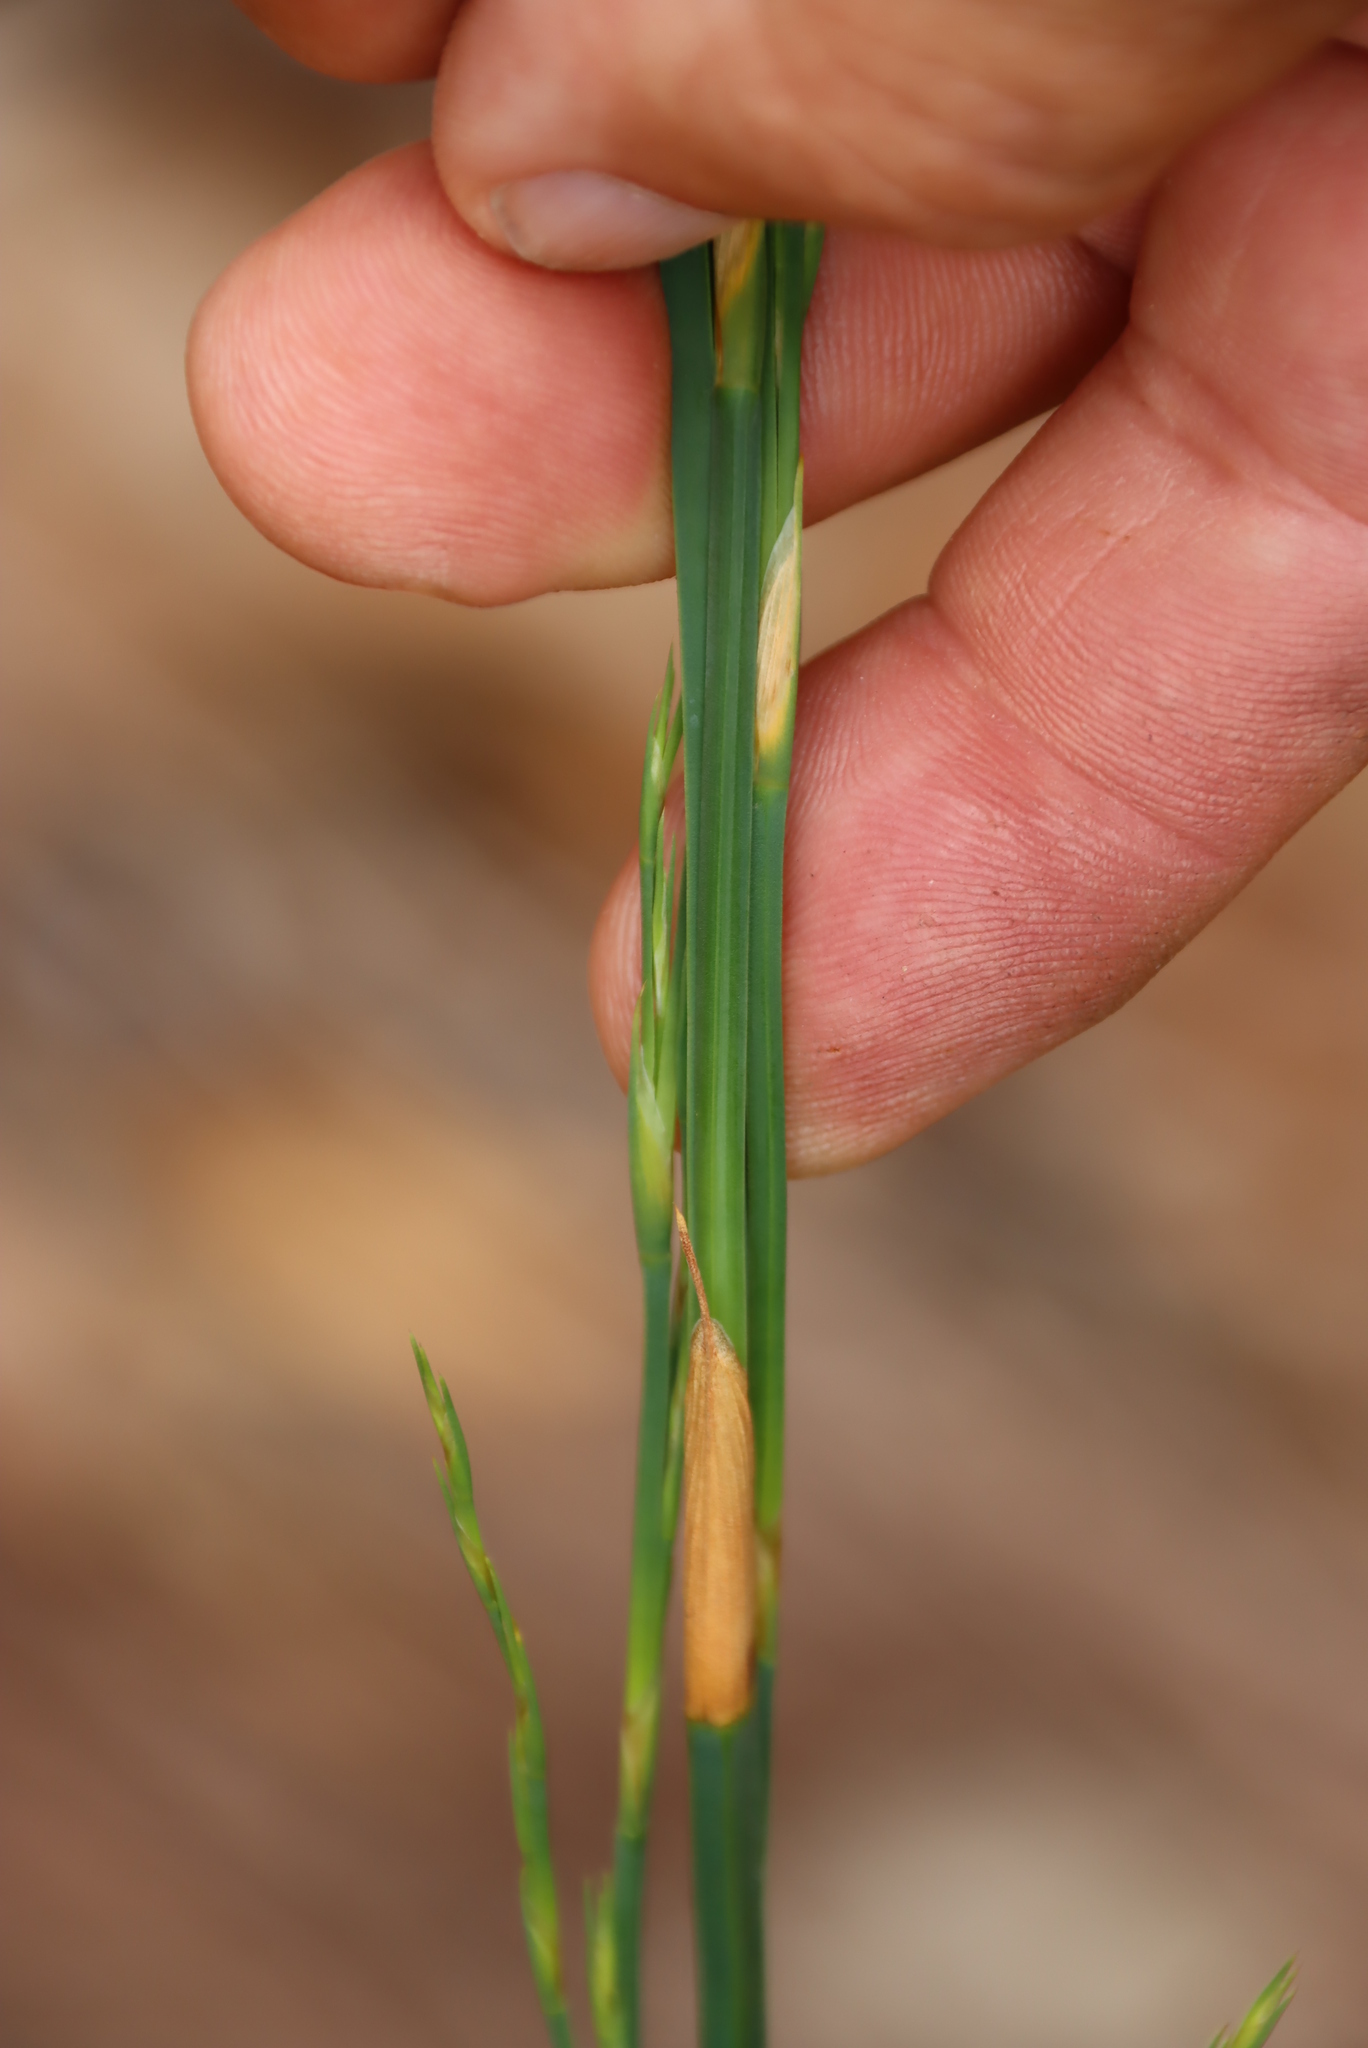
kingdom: Plantae
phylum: Tracheophyta
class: Liliopsida
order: Poales
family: Restionaceae
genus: Restio
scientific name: Restio tetragonus
